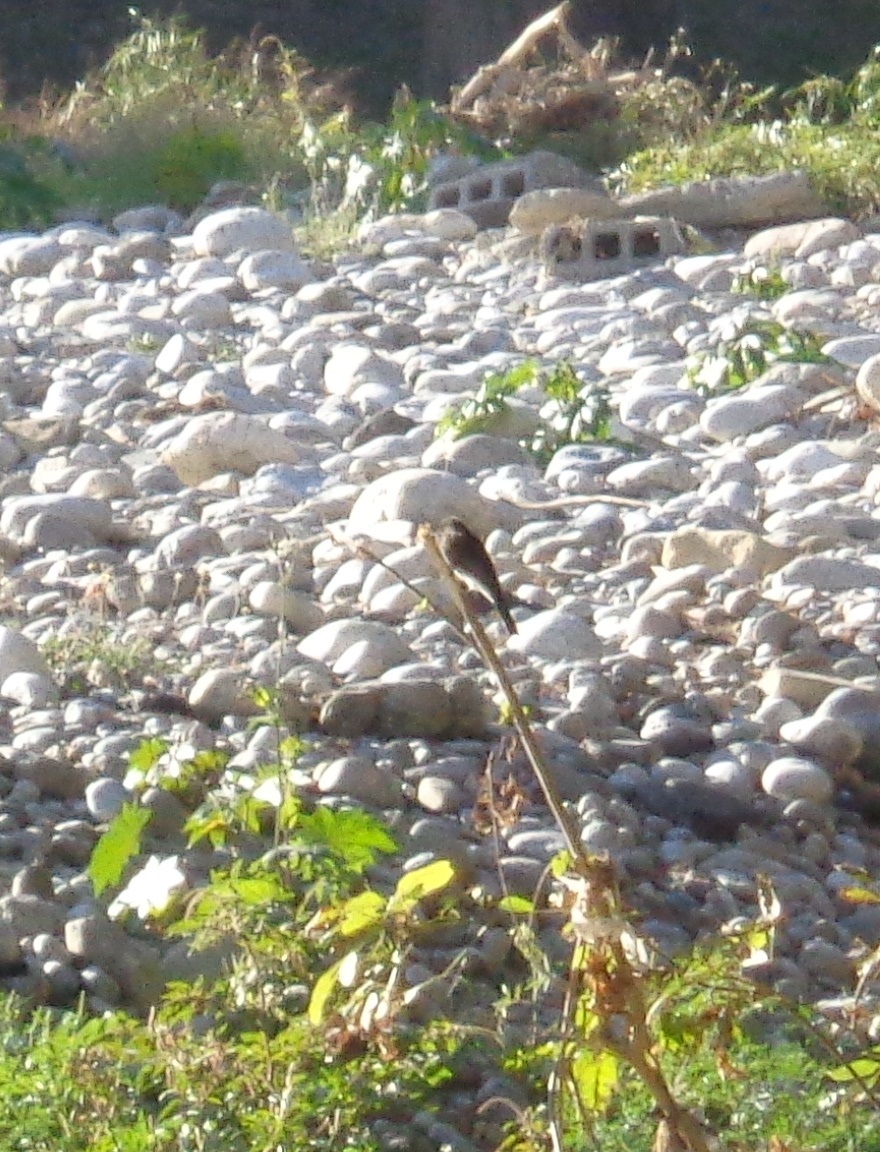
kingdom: Animalia
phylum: Chordata
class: Aves
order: Passeriformes
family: Tyrannidae
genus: Sayornis
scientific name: Sayornis nigricans
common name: Black phoebe
